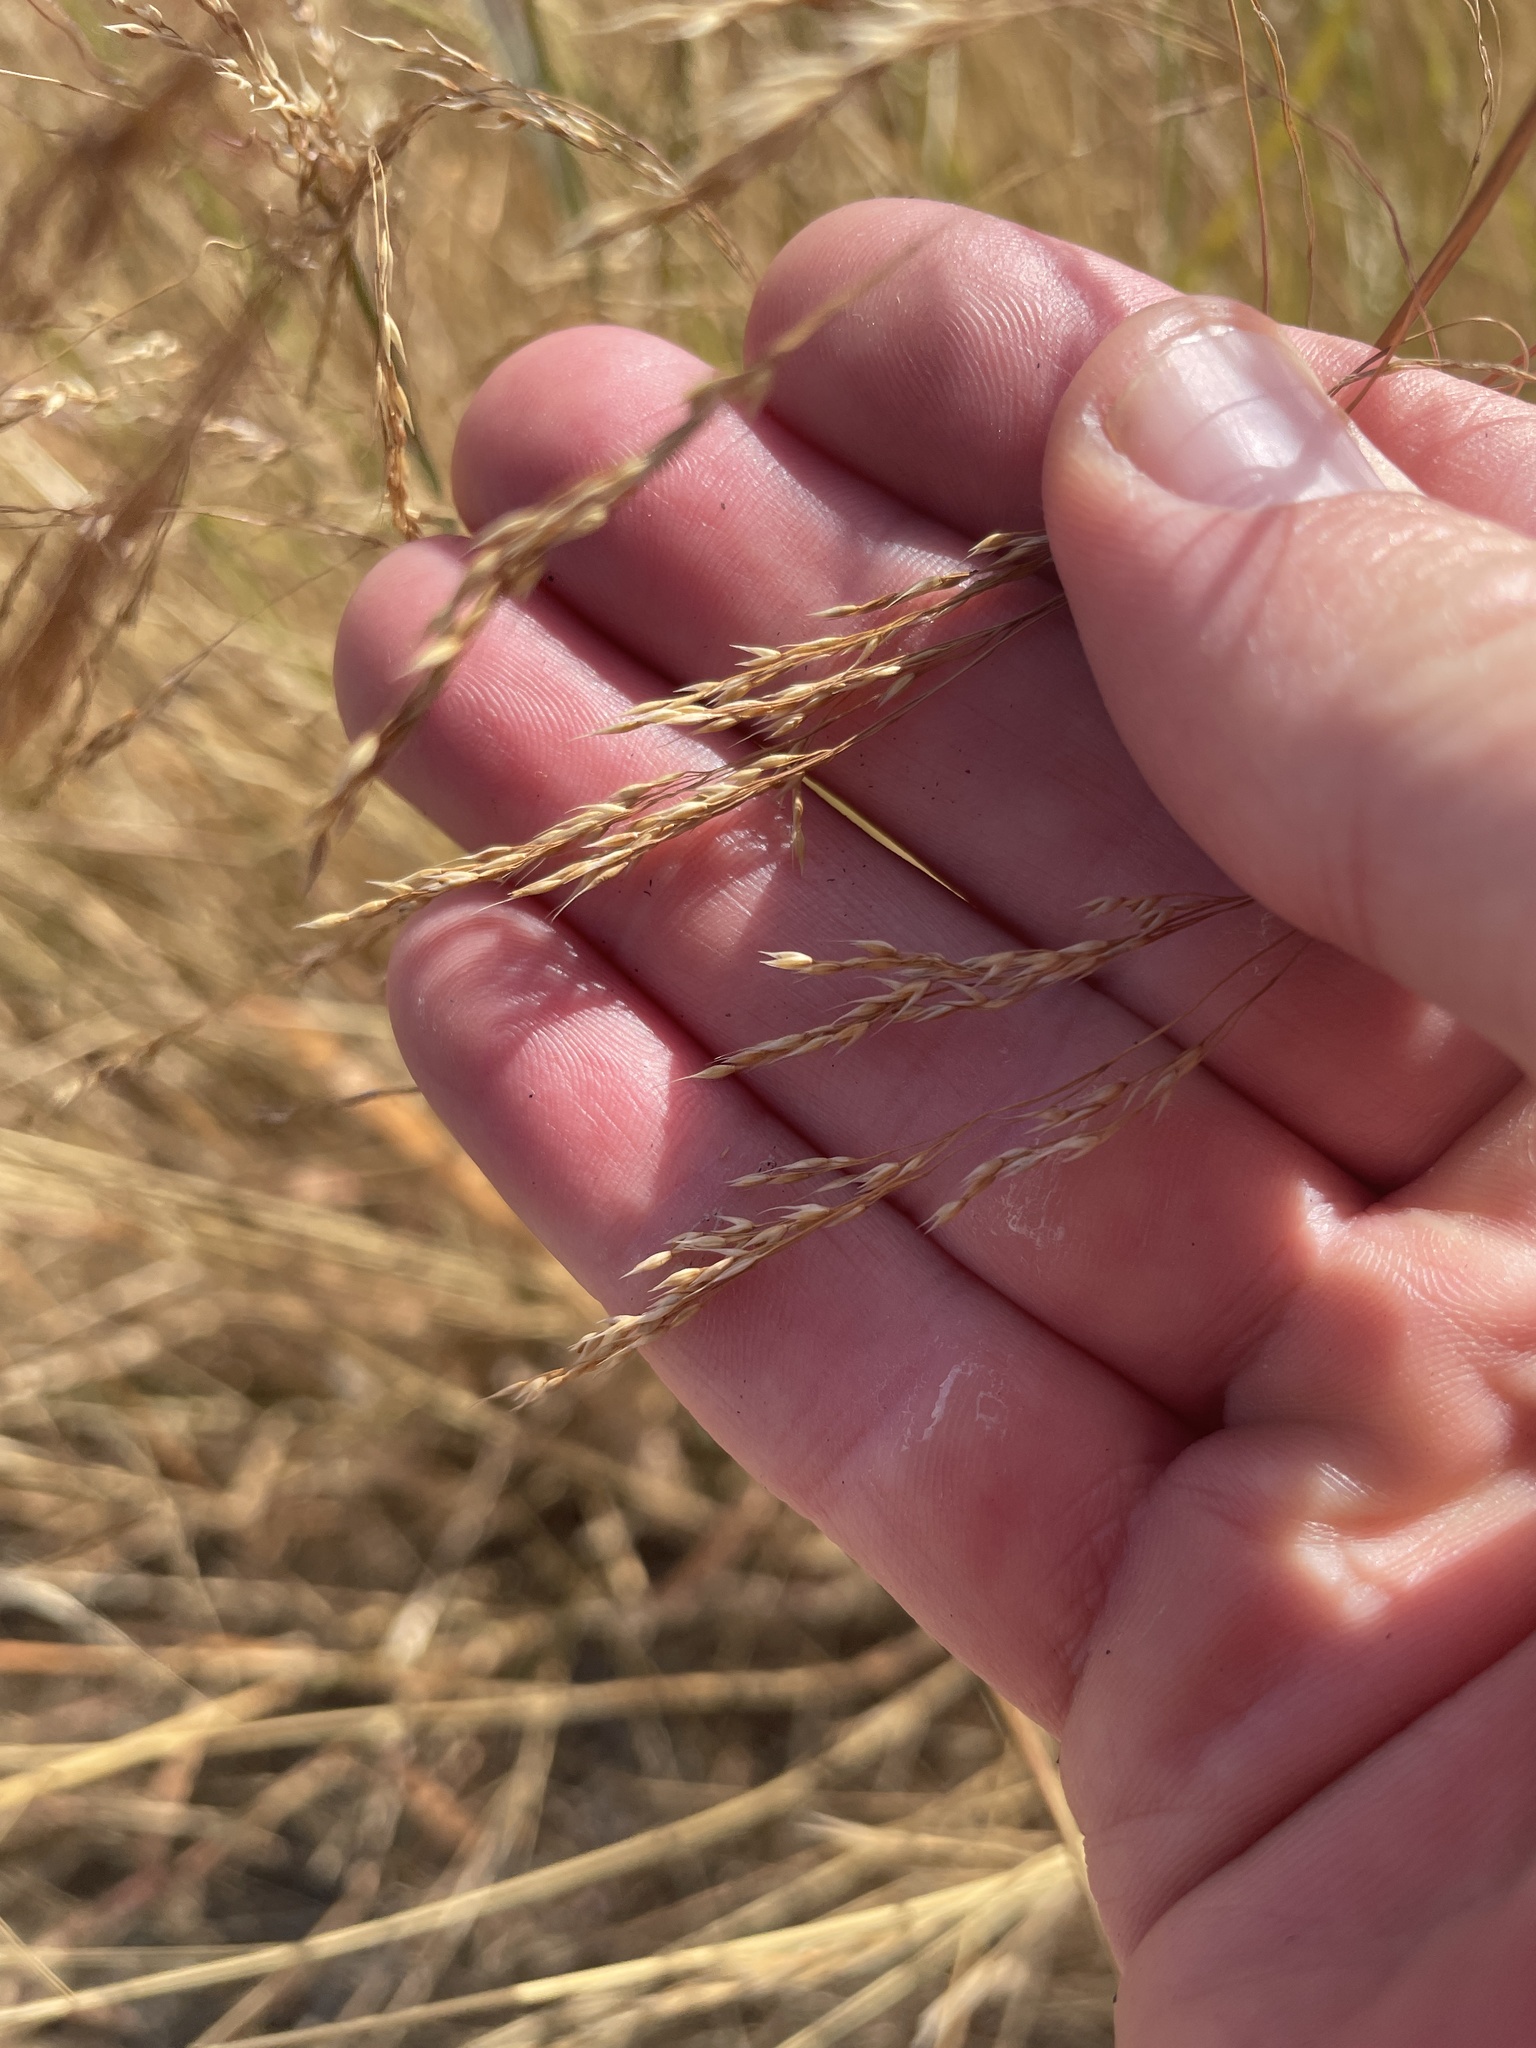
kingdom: Plantae
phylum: Tracheophyta
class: Liliopsida
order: Poales
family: Poaceae
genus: Oloptum
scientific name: Oloptum miliaceum
